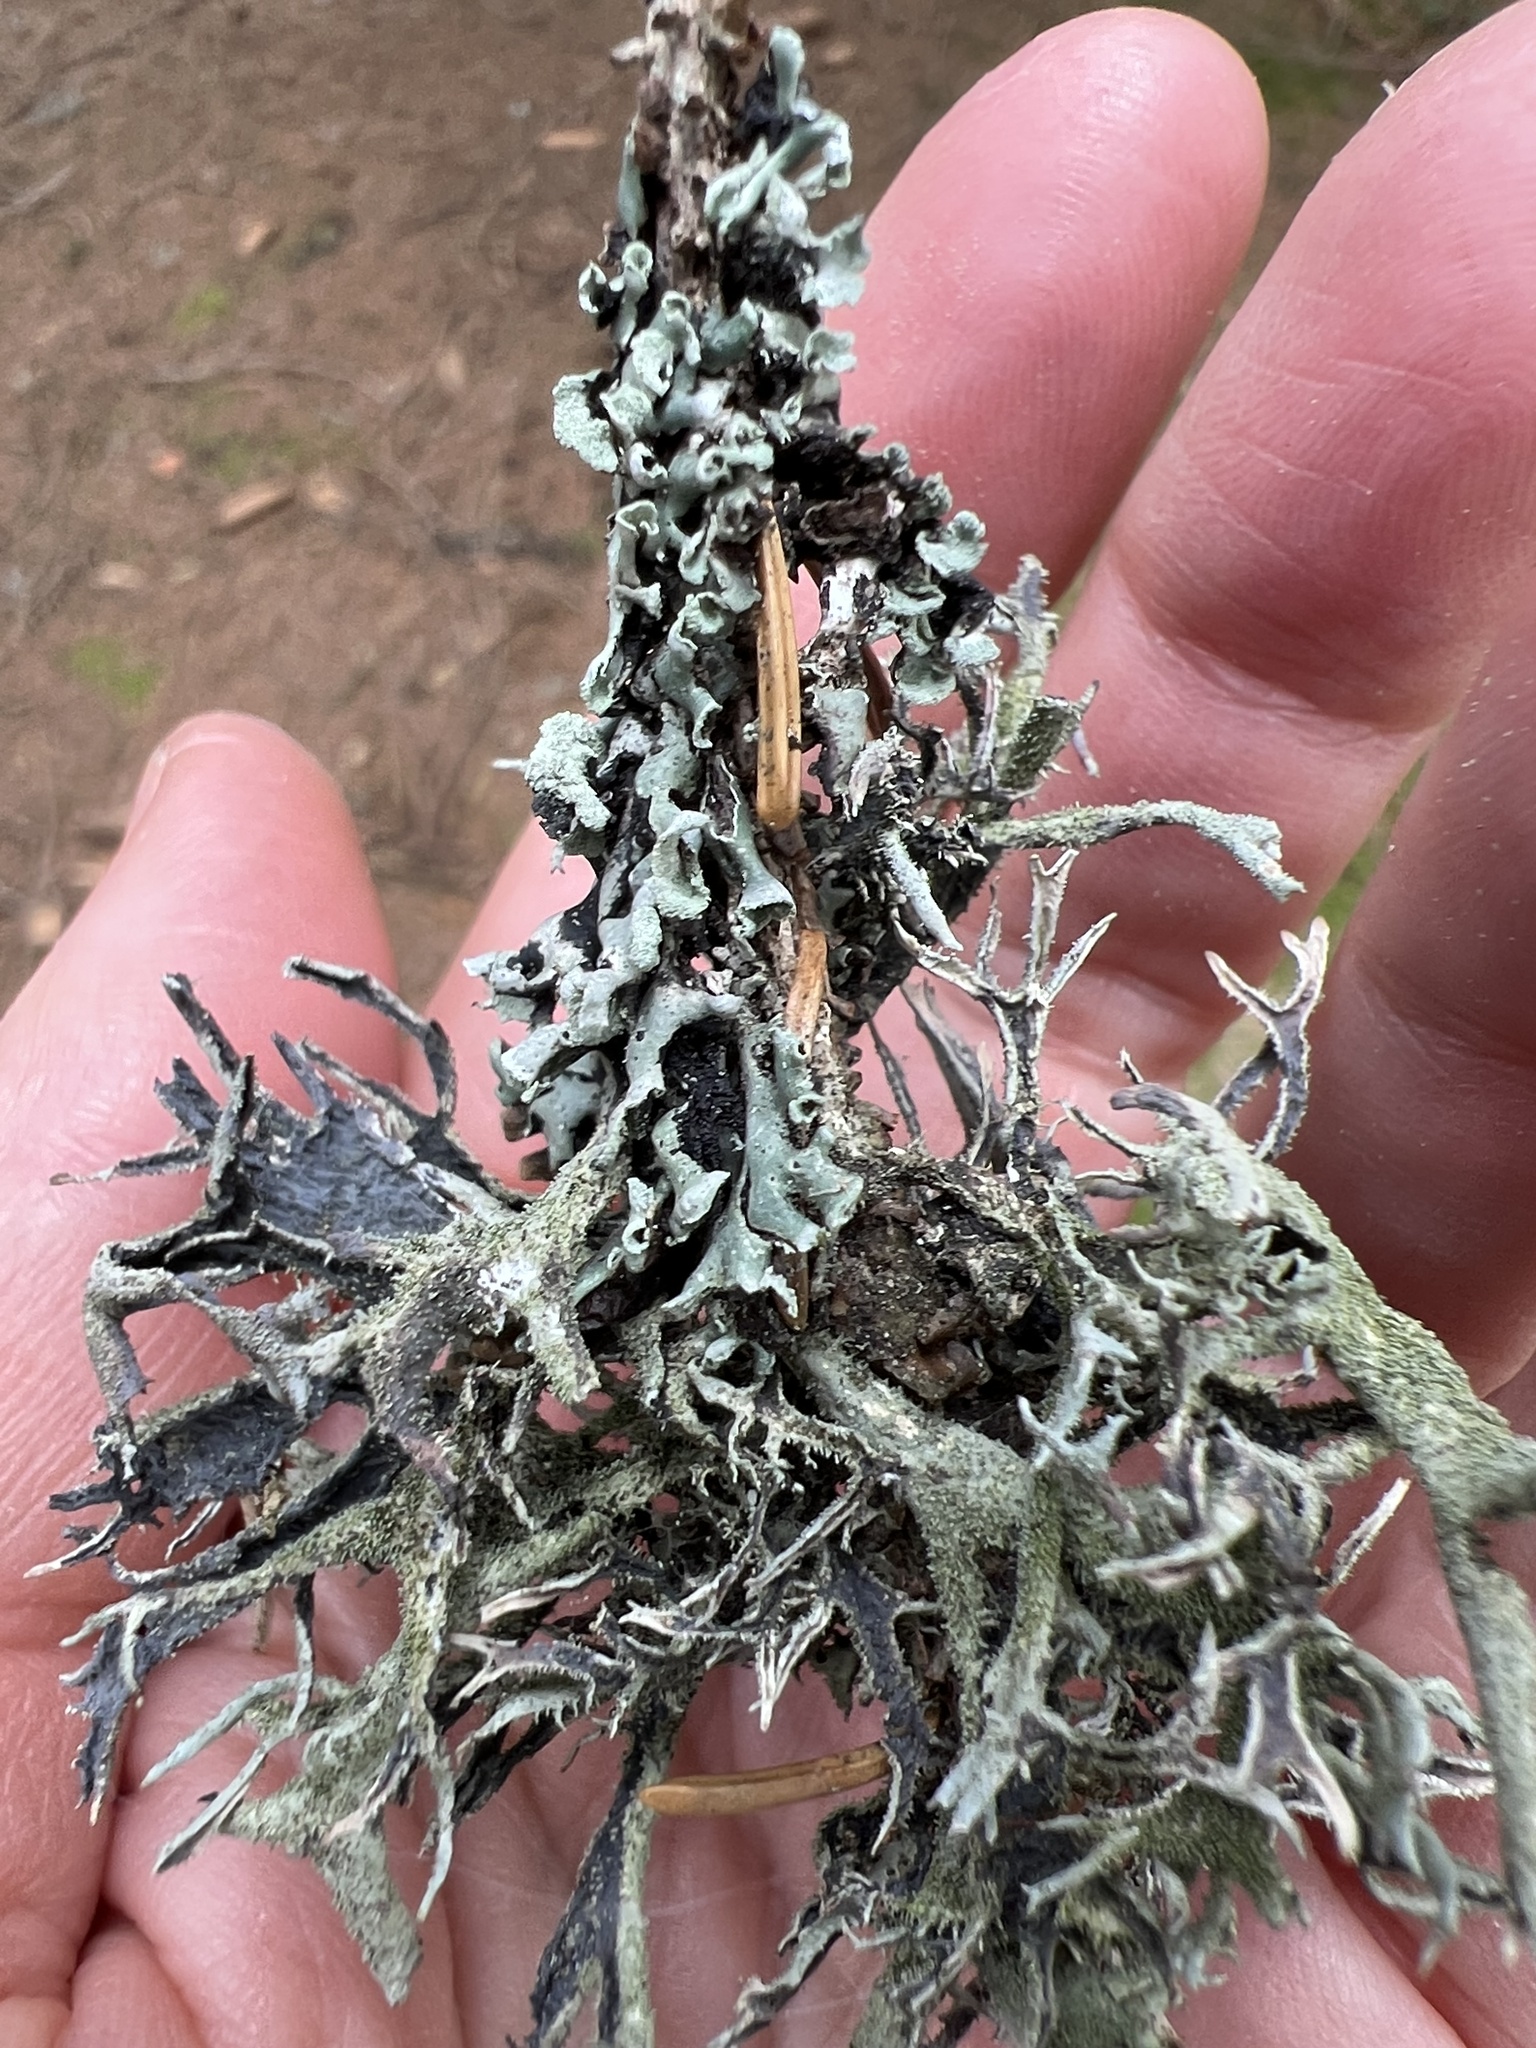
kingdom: Fungi
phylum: Ascomycota
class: Lecanoromycetes
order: Lecanorales
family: Parmeliaceae
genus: Pseudevernia
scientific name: Pseudevernia furfuracea
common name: Tree moss
